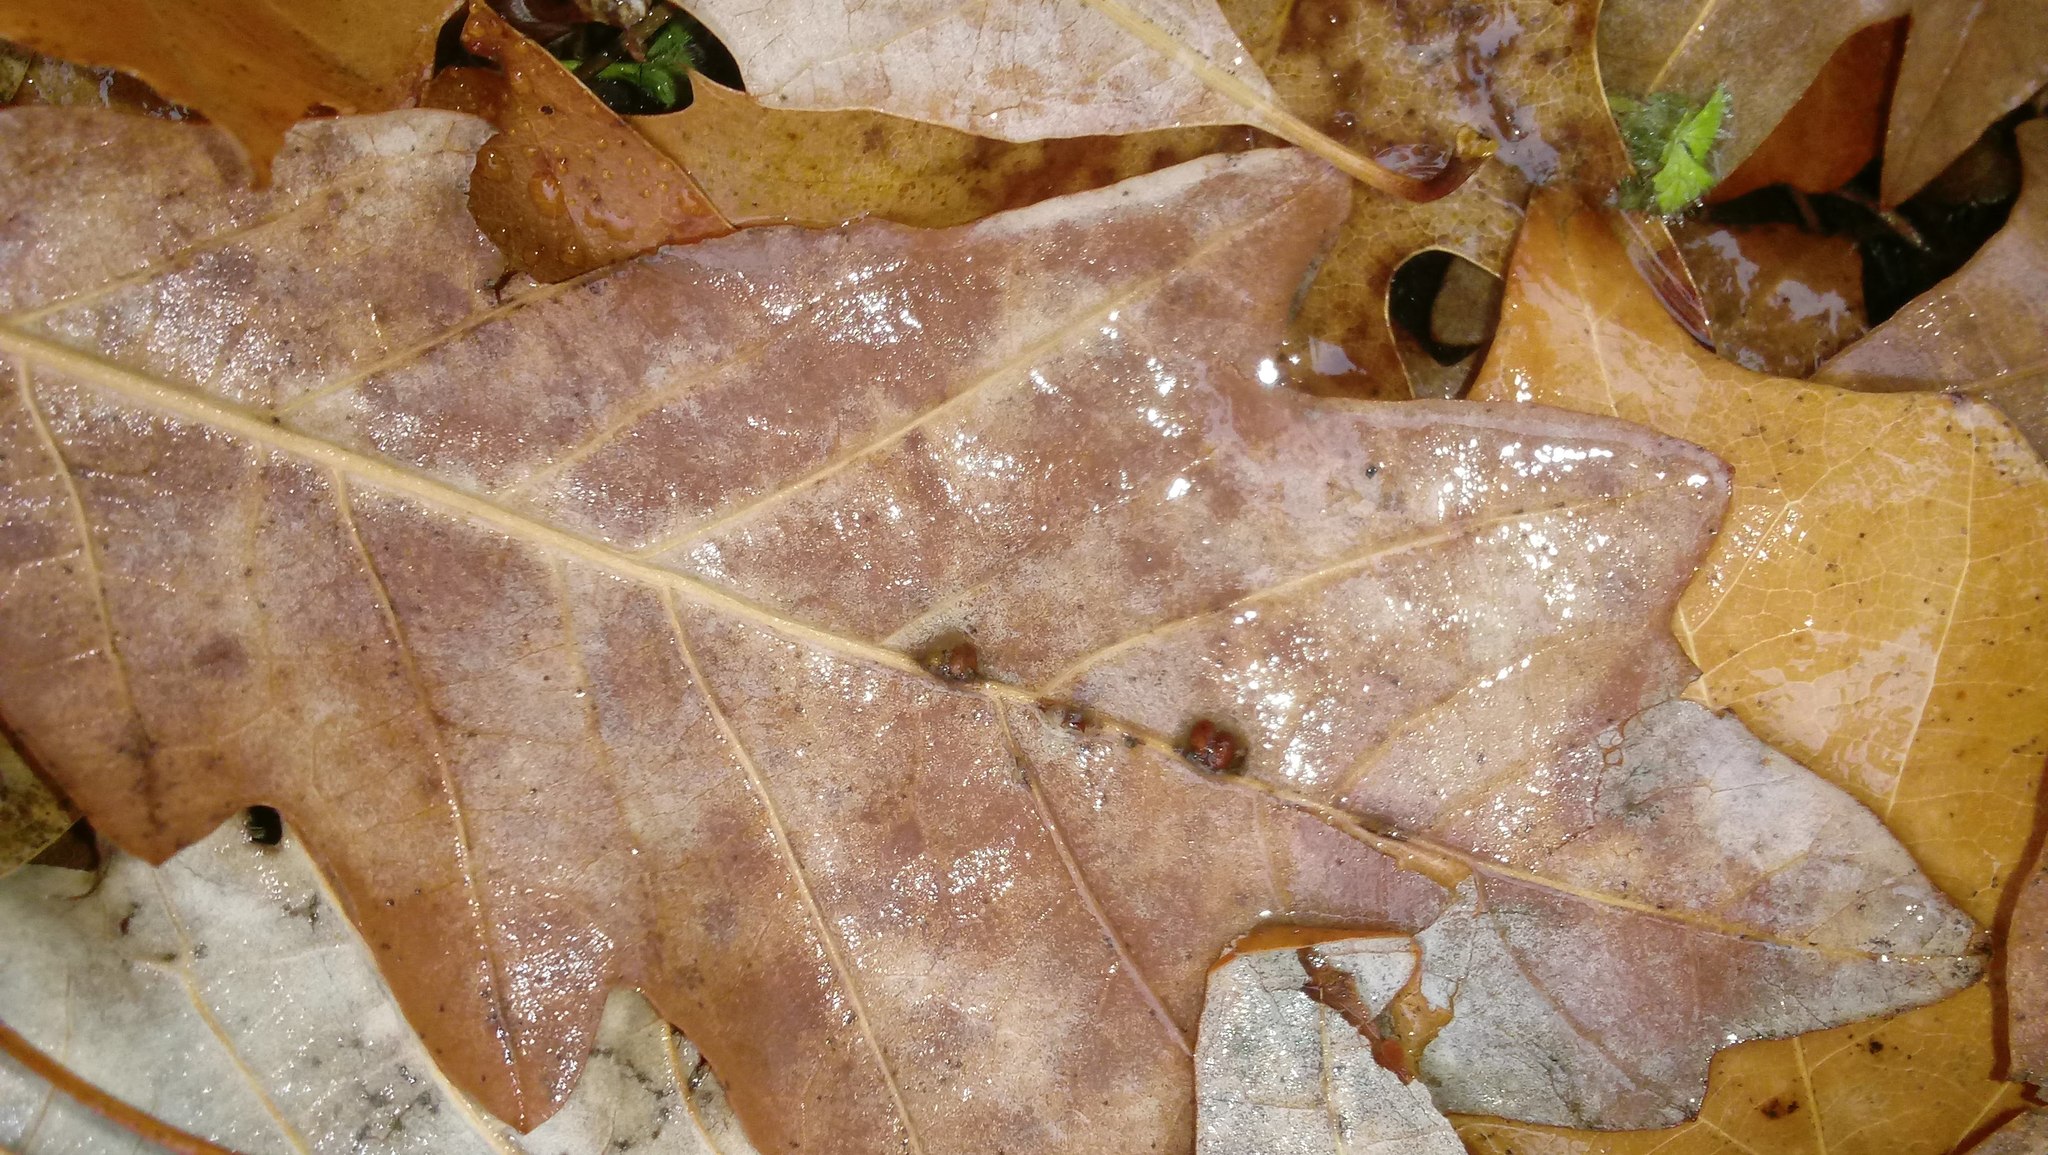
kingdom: Animalia
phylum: Arthropoda
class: Insecta
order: Hymenoptera
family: Cynipidae
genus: Andricus
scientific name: Andricus Druon ignotum
